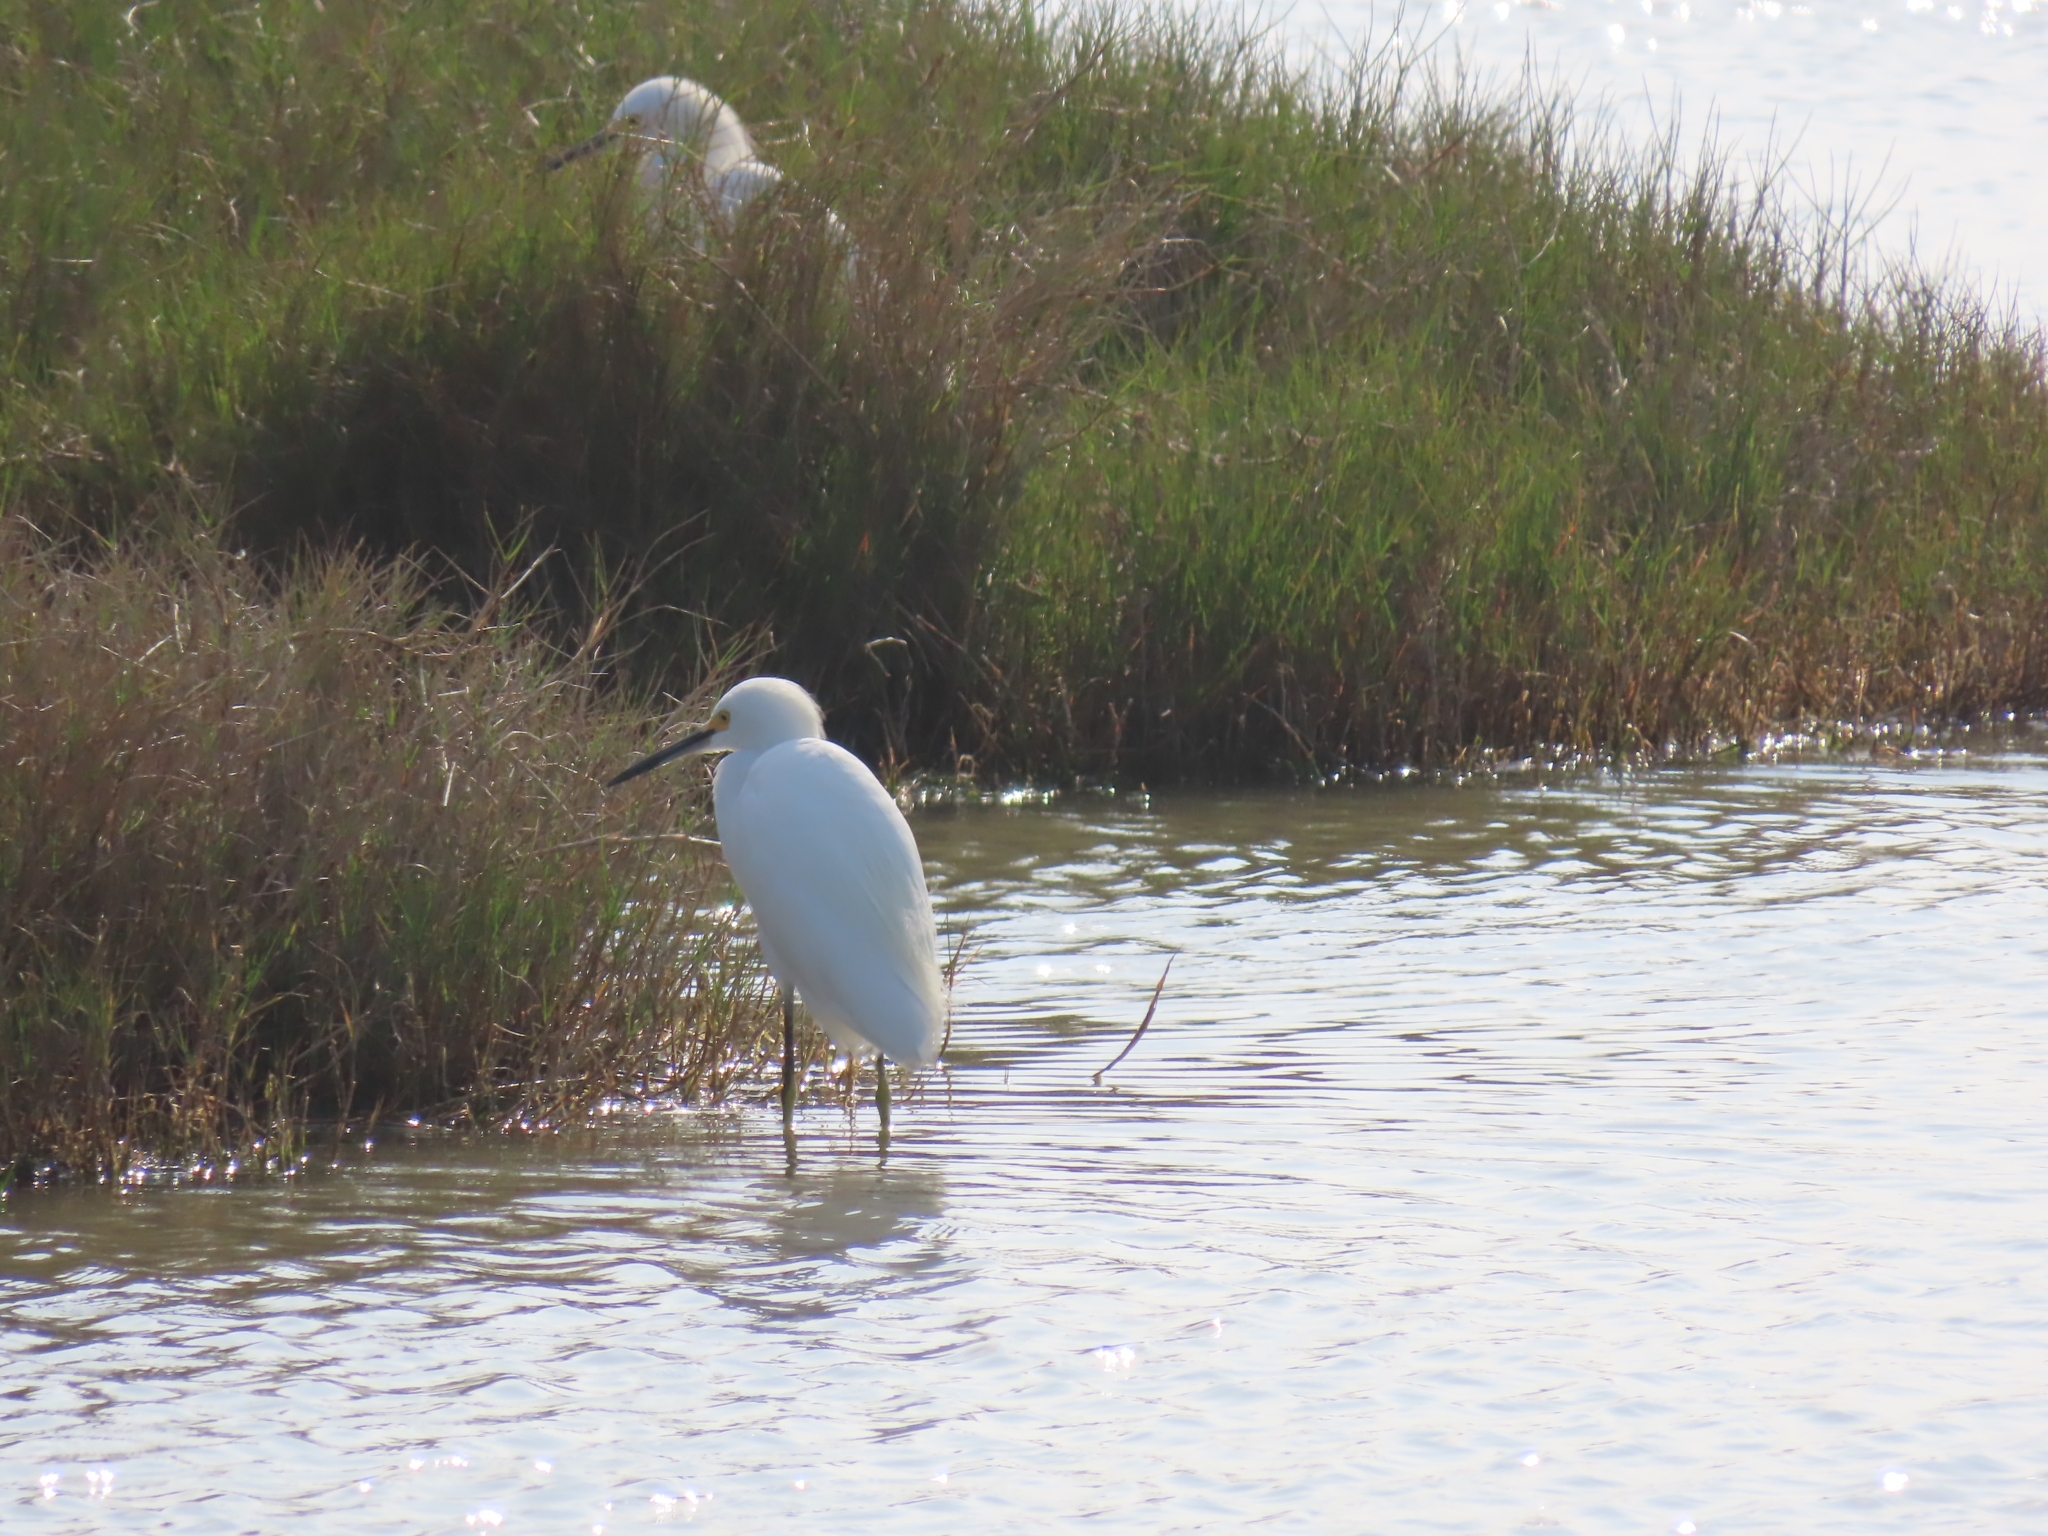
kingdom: Animalia
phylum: Chordata
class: Aves
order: Pelecaniformes
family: Ardeidae
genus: Egretta
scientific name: Egretta thula
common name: Snowy egret
